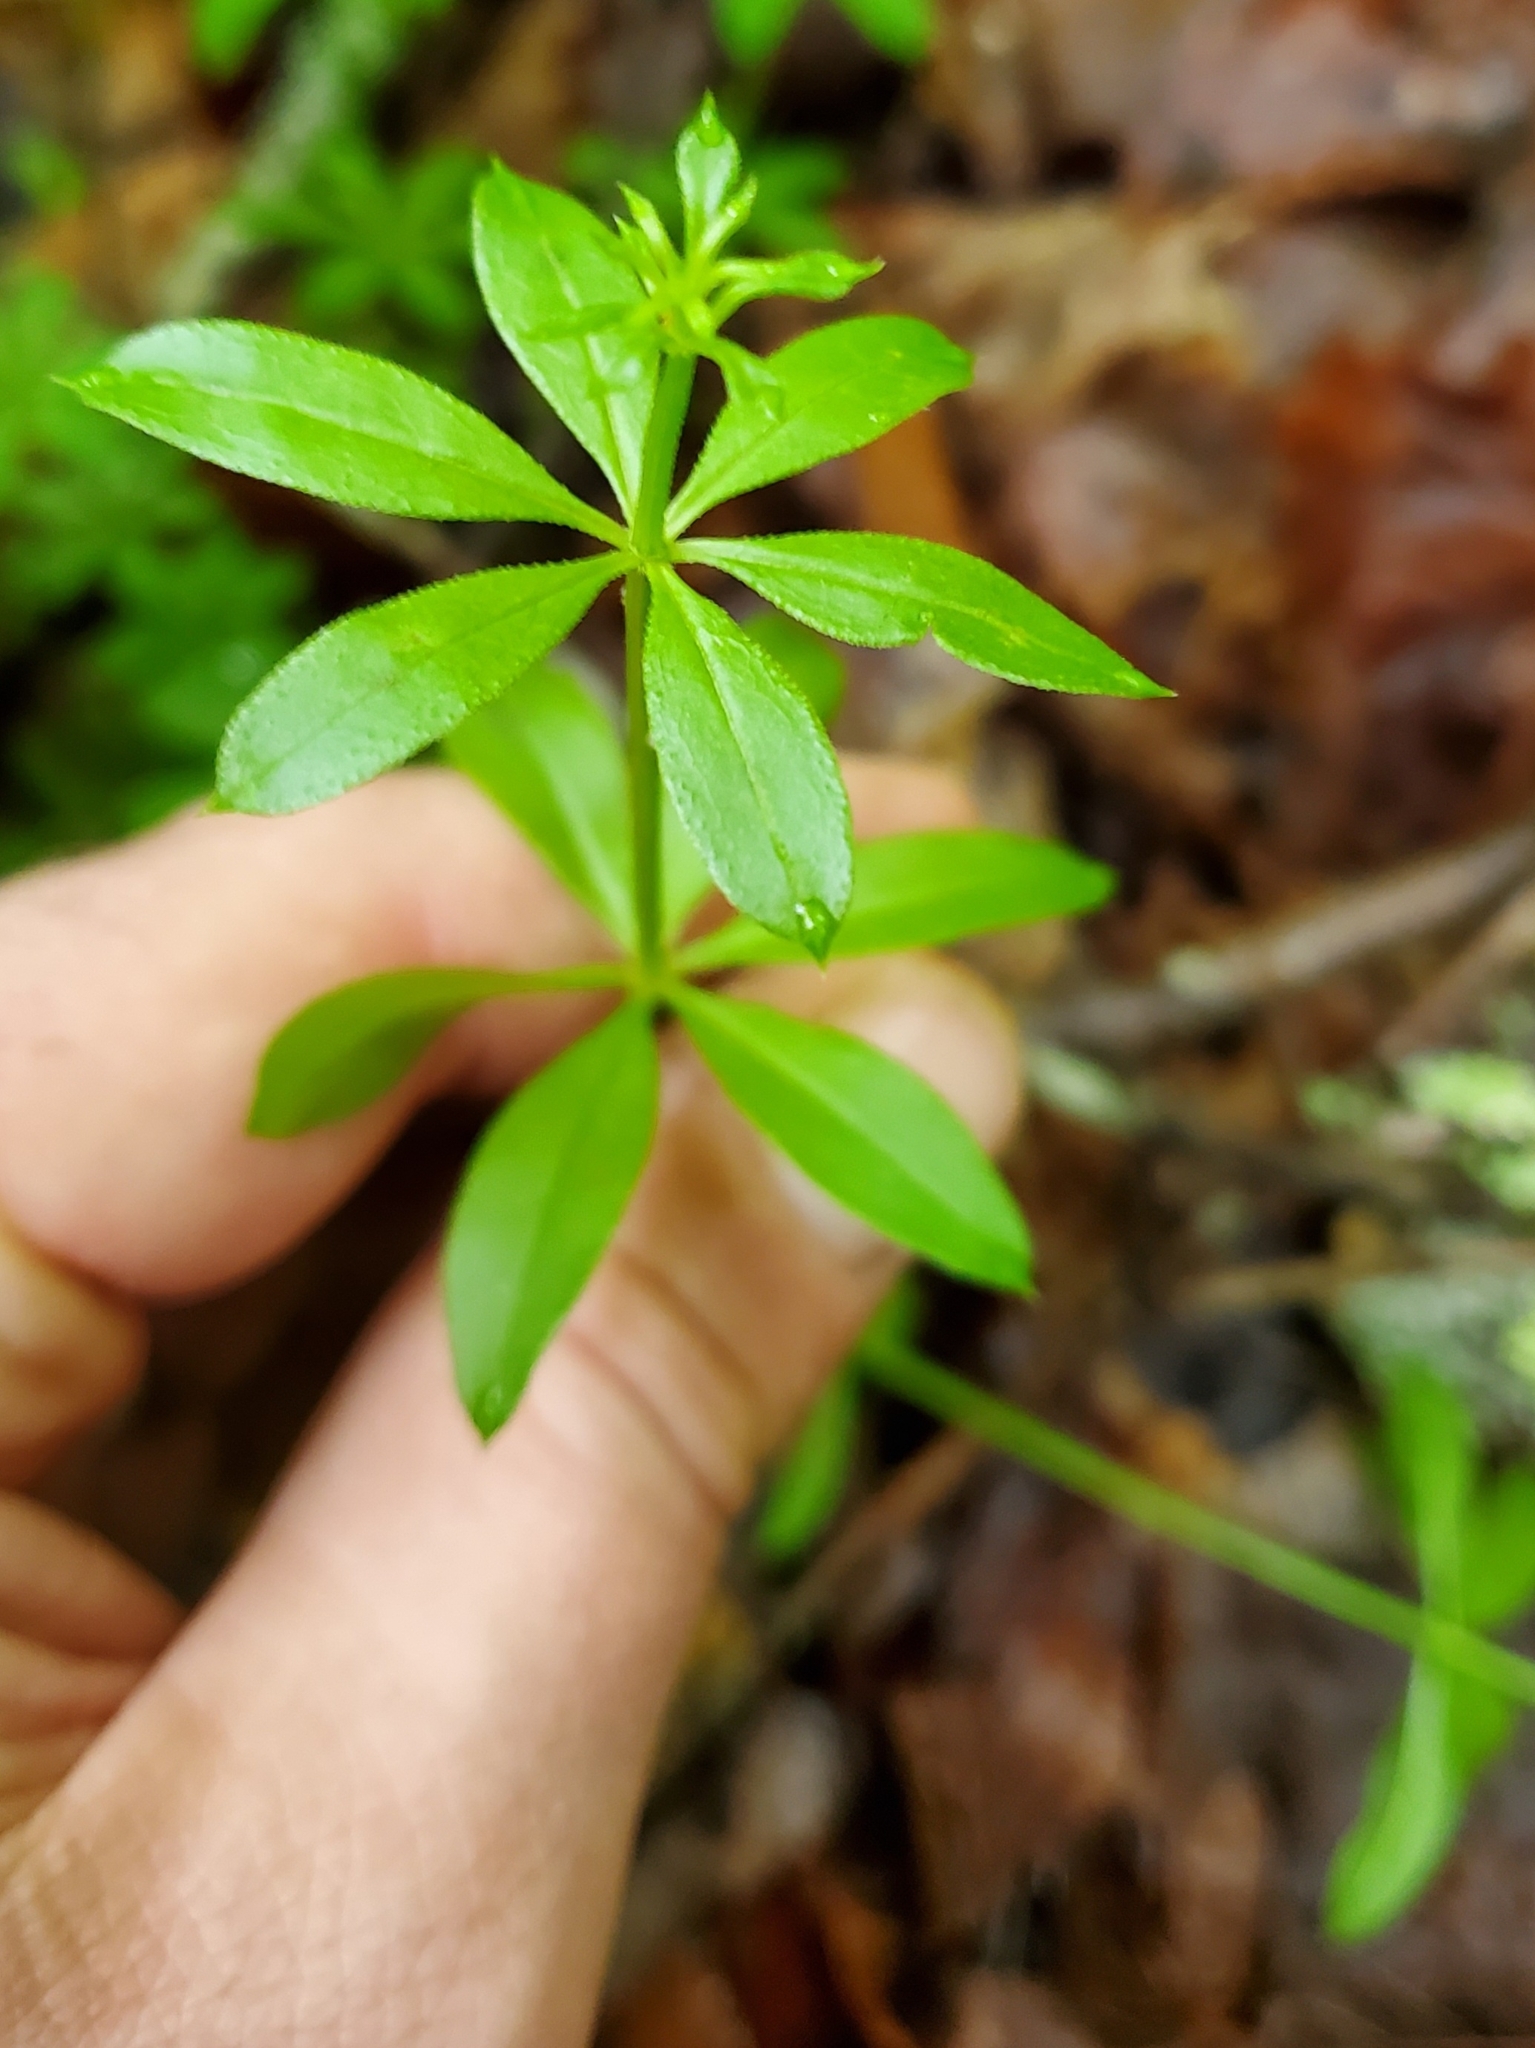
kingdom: Plantae
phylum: Tracheophyta
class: Magnoliopsida
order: Gentianales
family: Rubiaceae
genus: Galium
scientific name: Galium triflorum
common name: Fragrant bedstraw
